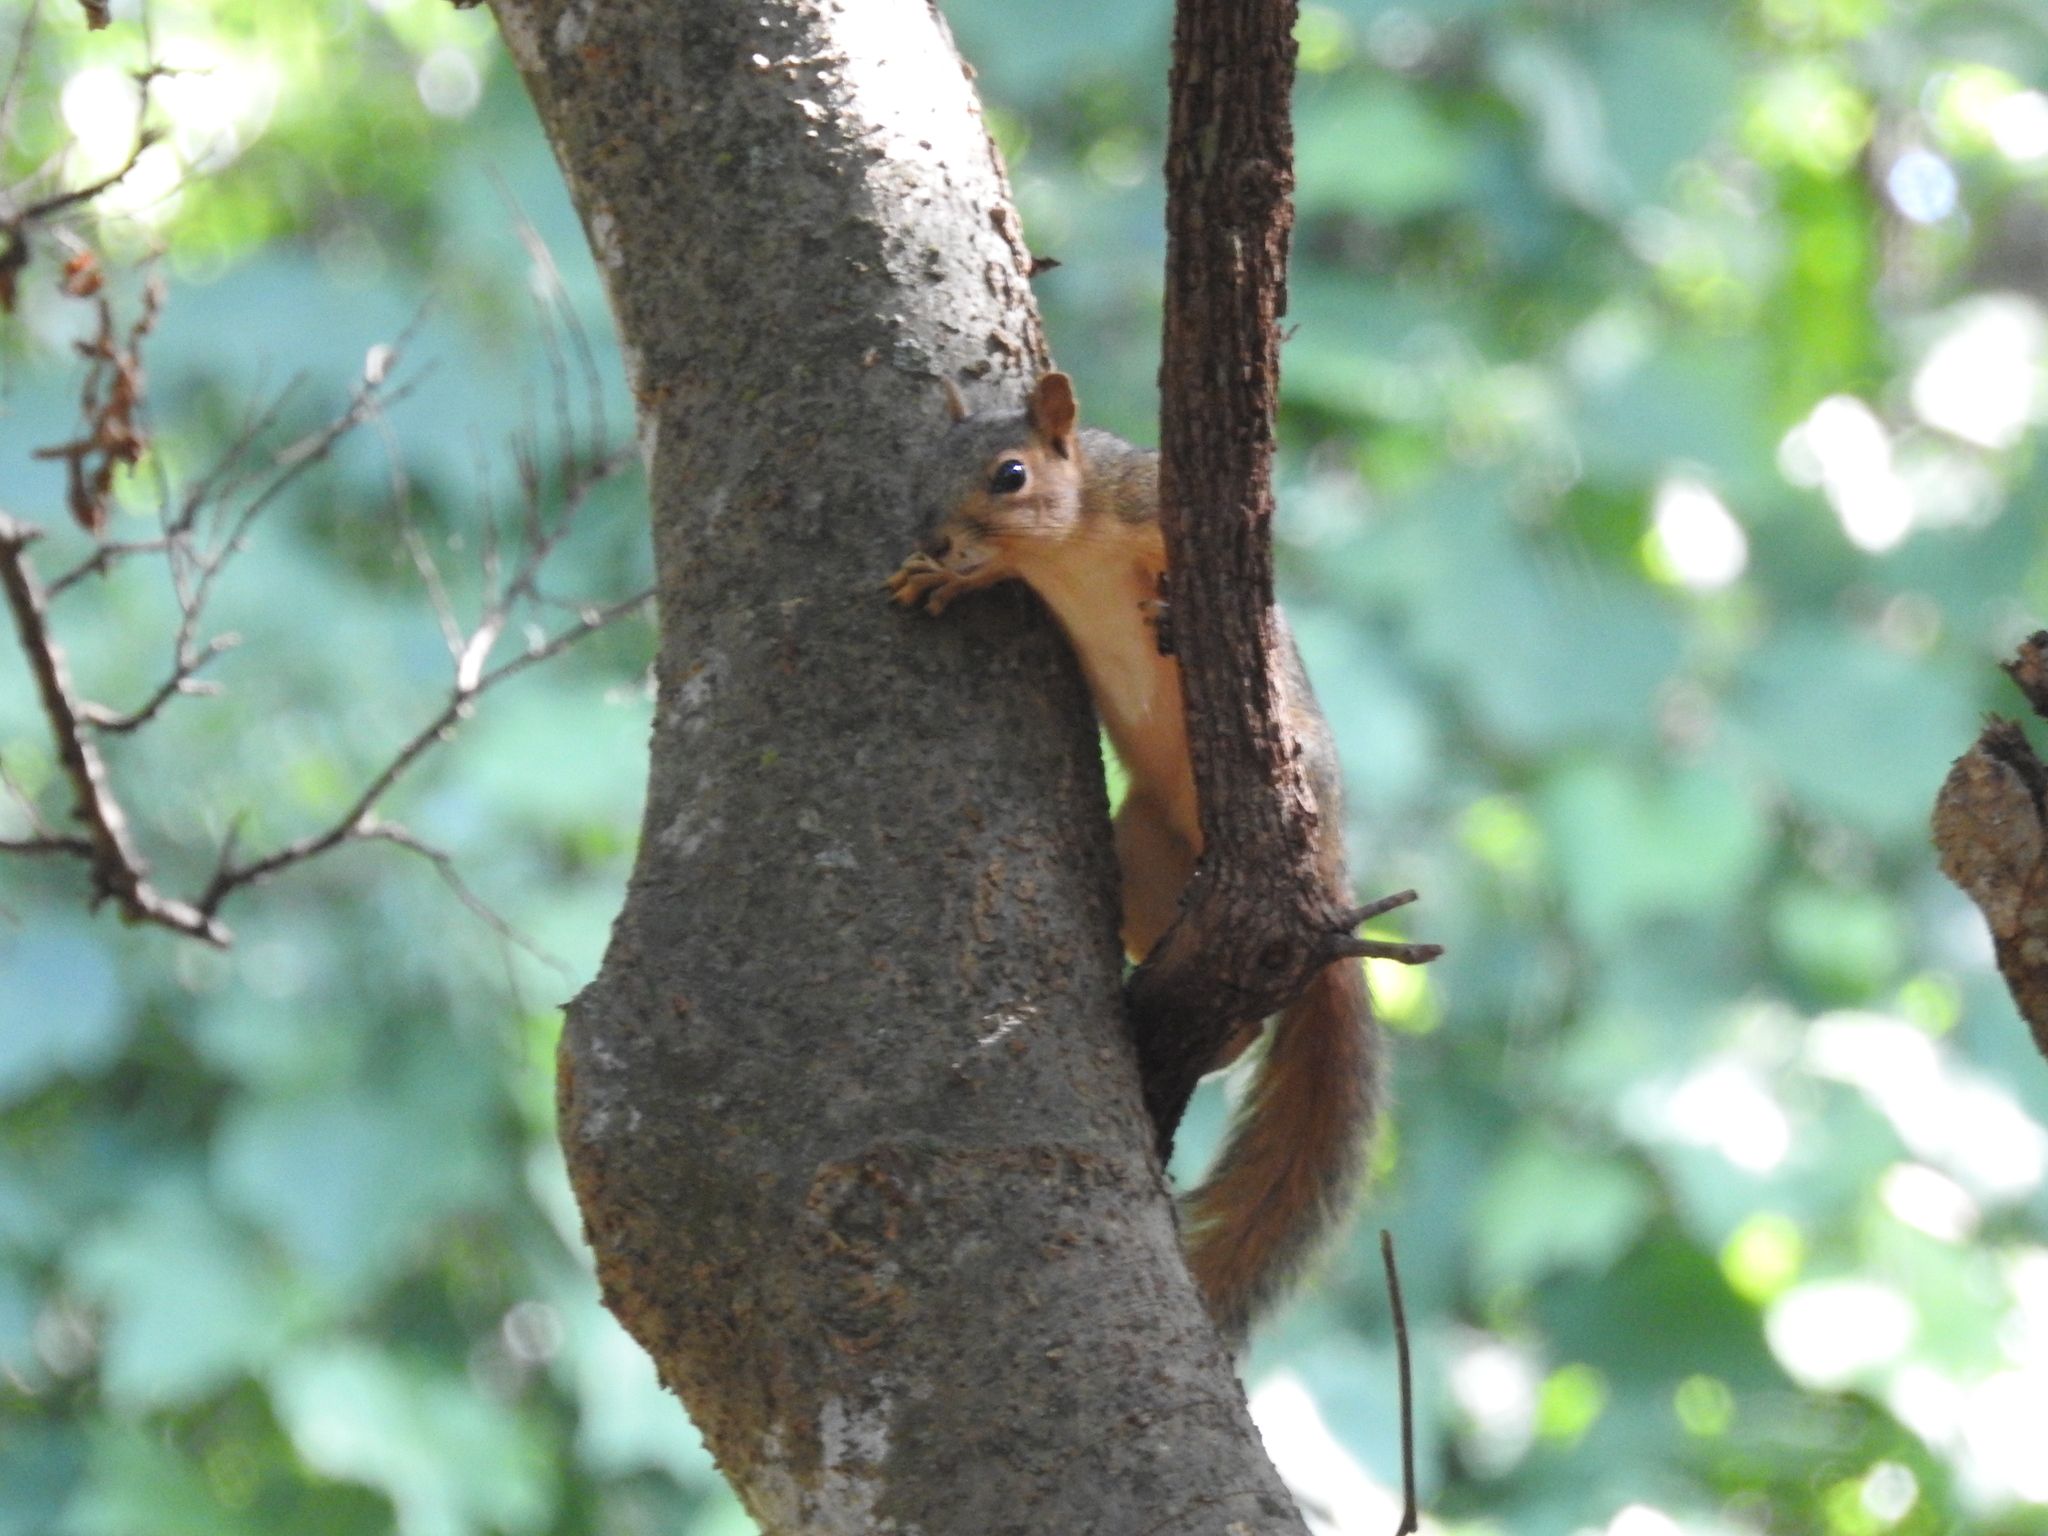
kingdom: Animalia
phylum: Chordata
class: Mammalia
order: Rodentia
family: Sciuridae
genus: Sciurus
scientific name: Sciurus niger
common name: Fox squirrel
